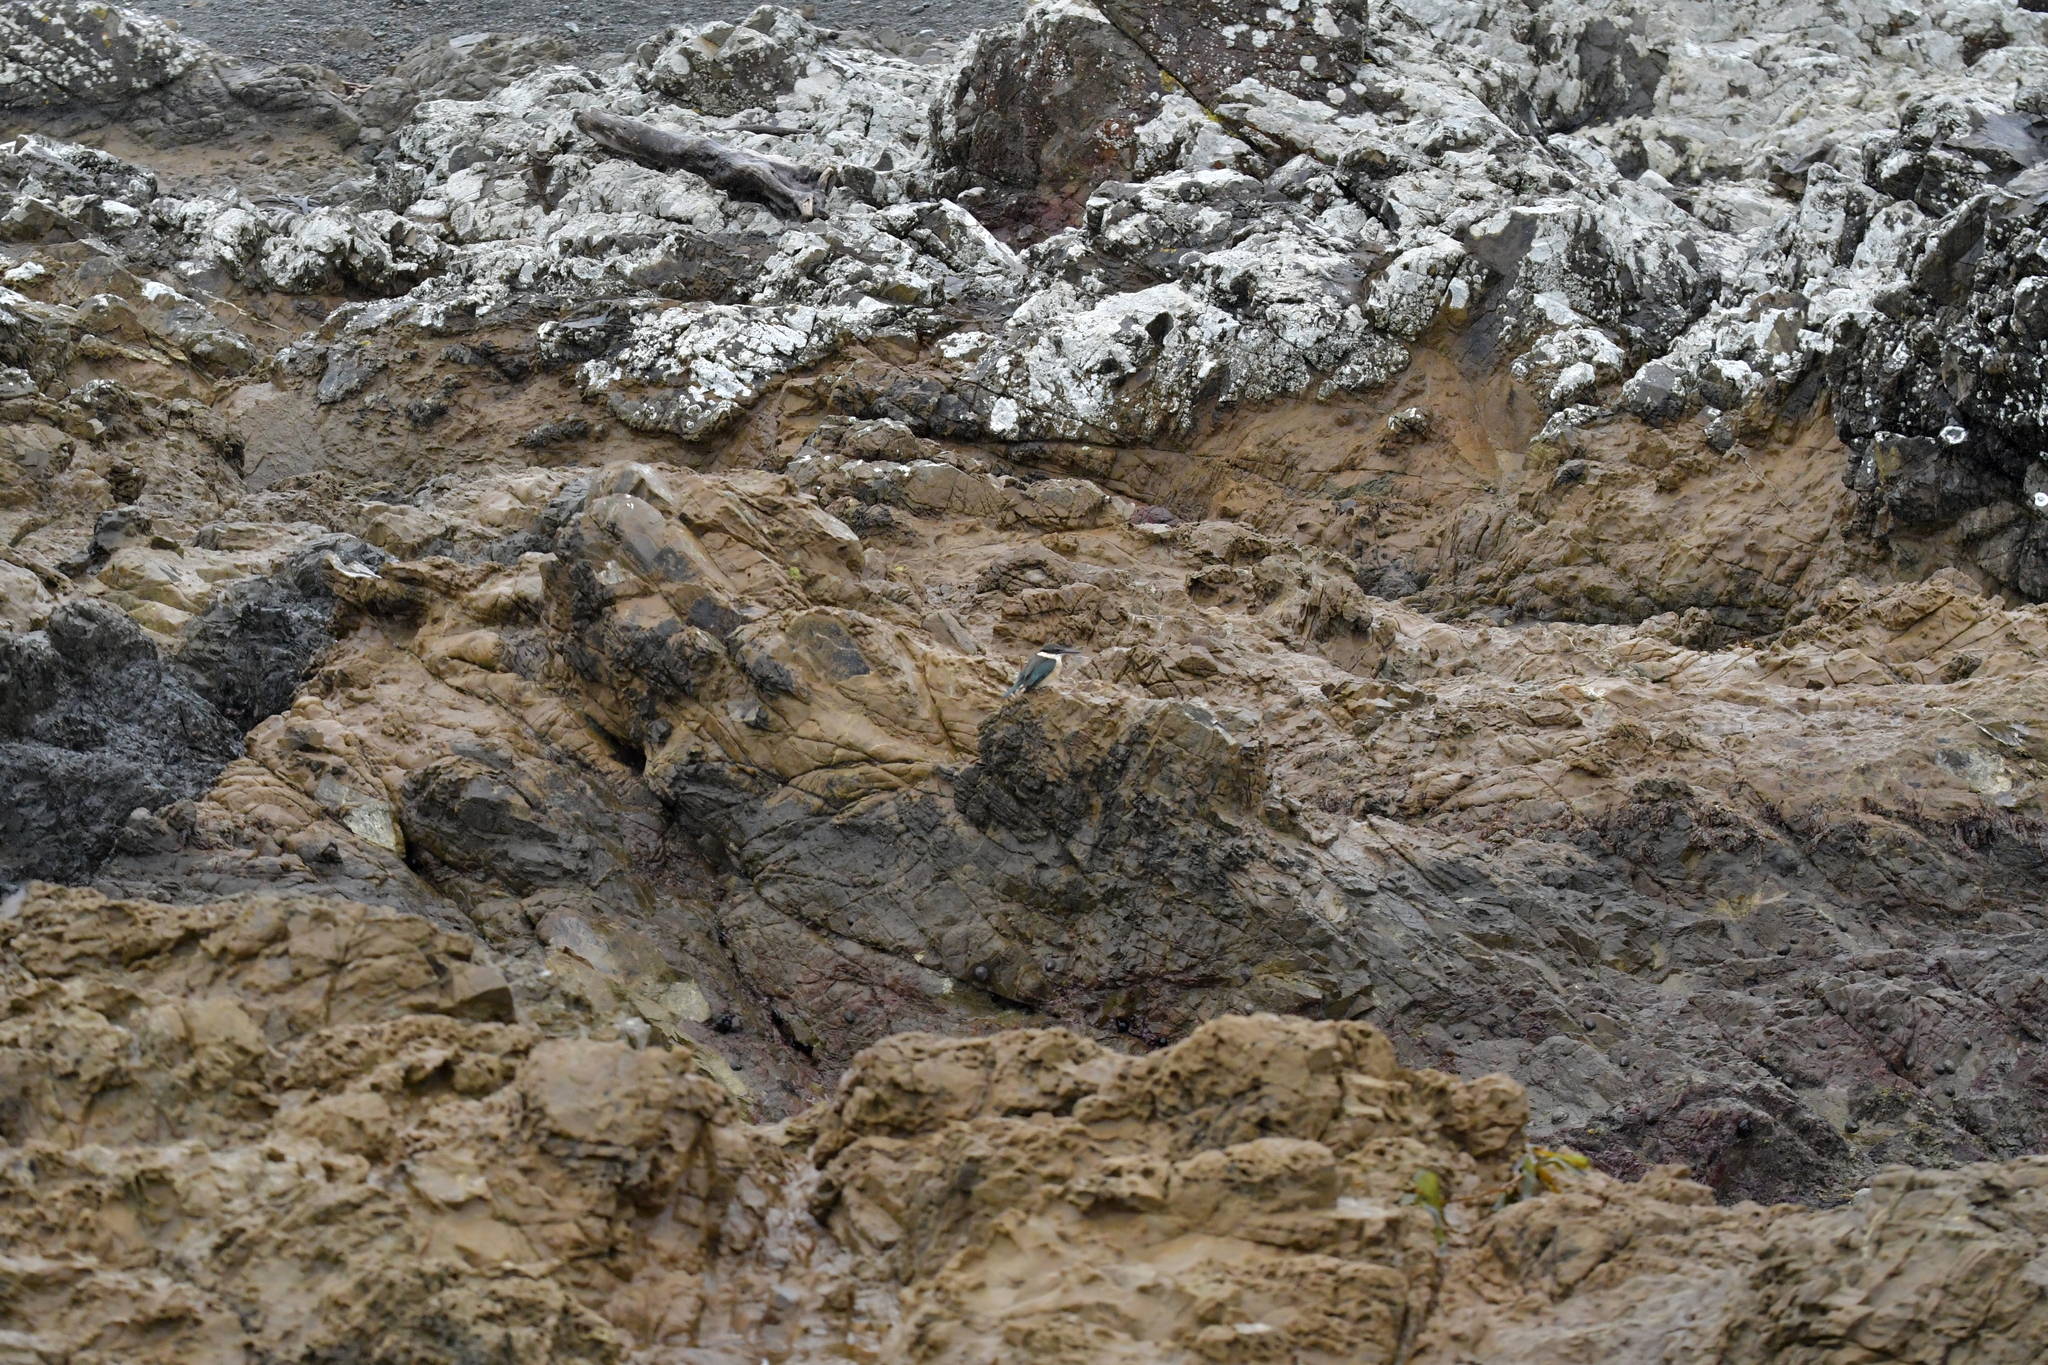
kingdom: Animalia
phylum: Chordata
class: Aves
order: Coraciiformes
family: Alcedinidae
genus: Todiramphus
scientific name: Todiramphus sanctus
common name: Sacred kingfisher
